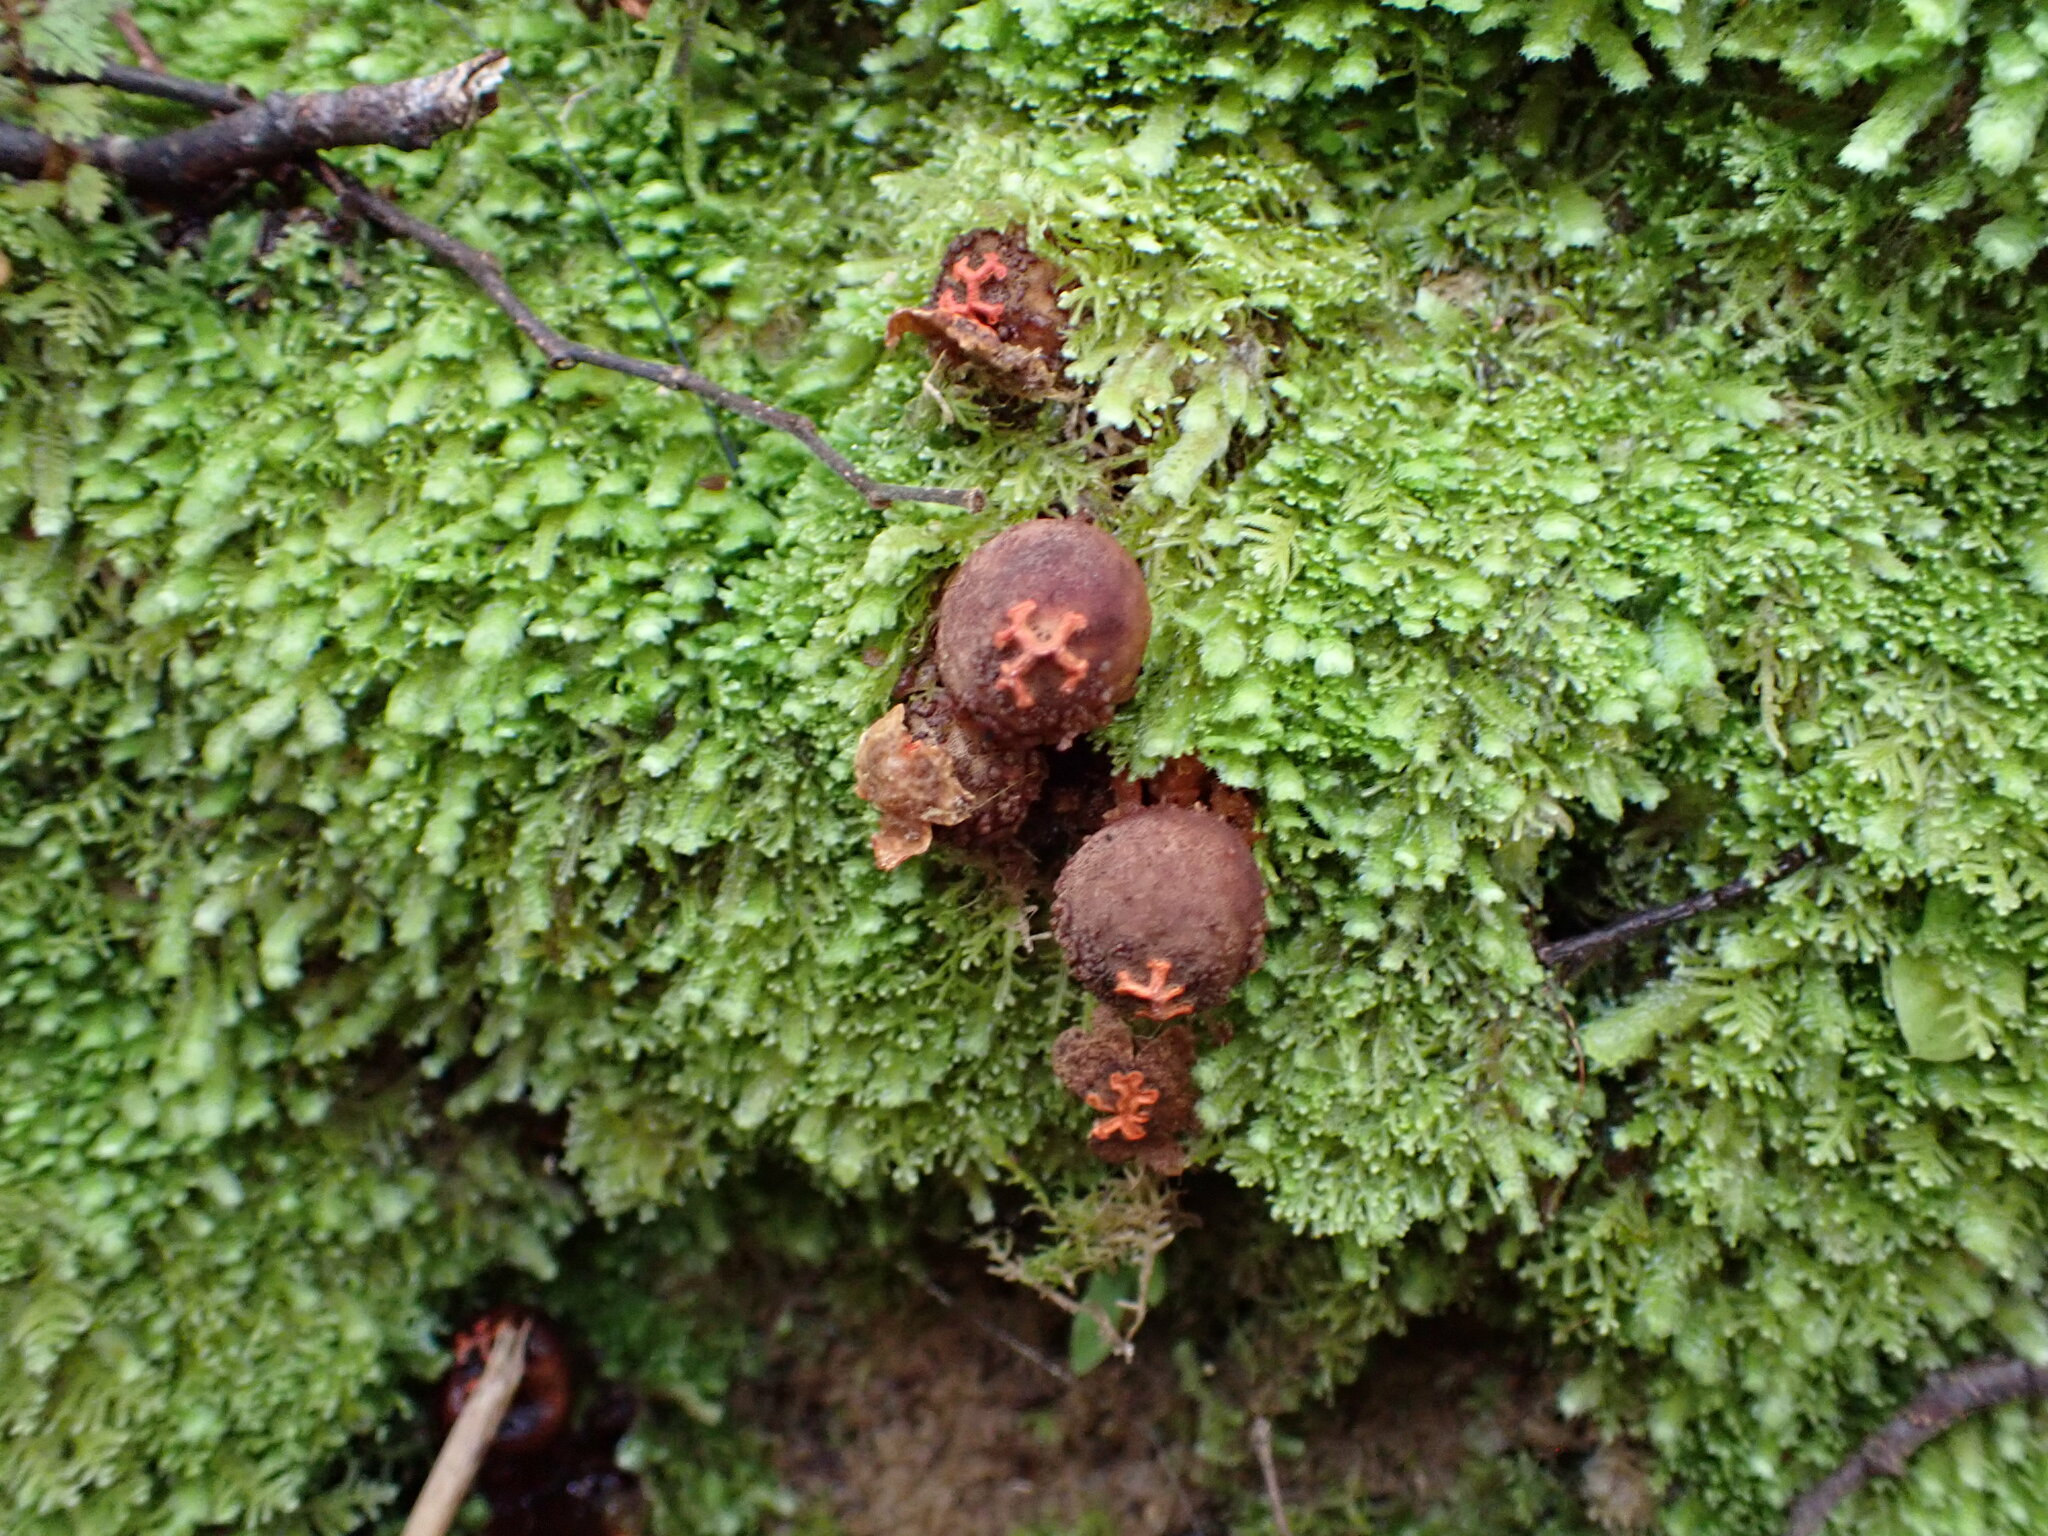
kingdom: Fungi
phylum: Basidiomycota
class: Agaricomycetes
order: Boletales
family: Calostomataceae
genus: Calostoma
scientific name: Calostoma rodwayi
